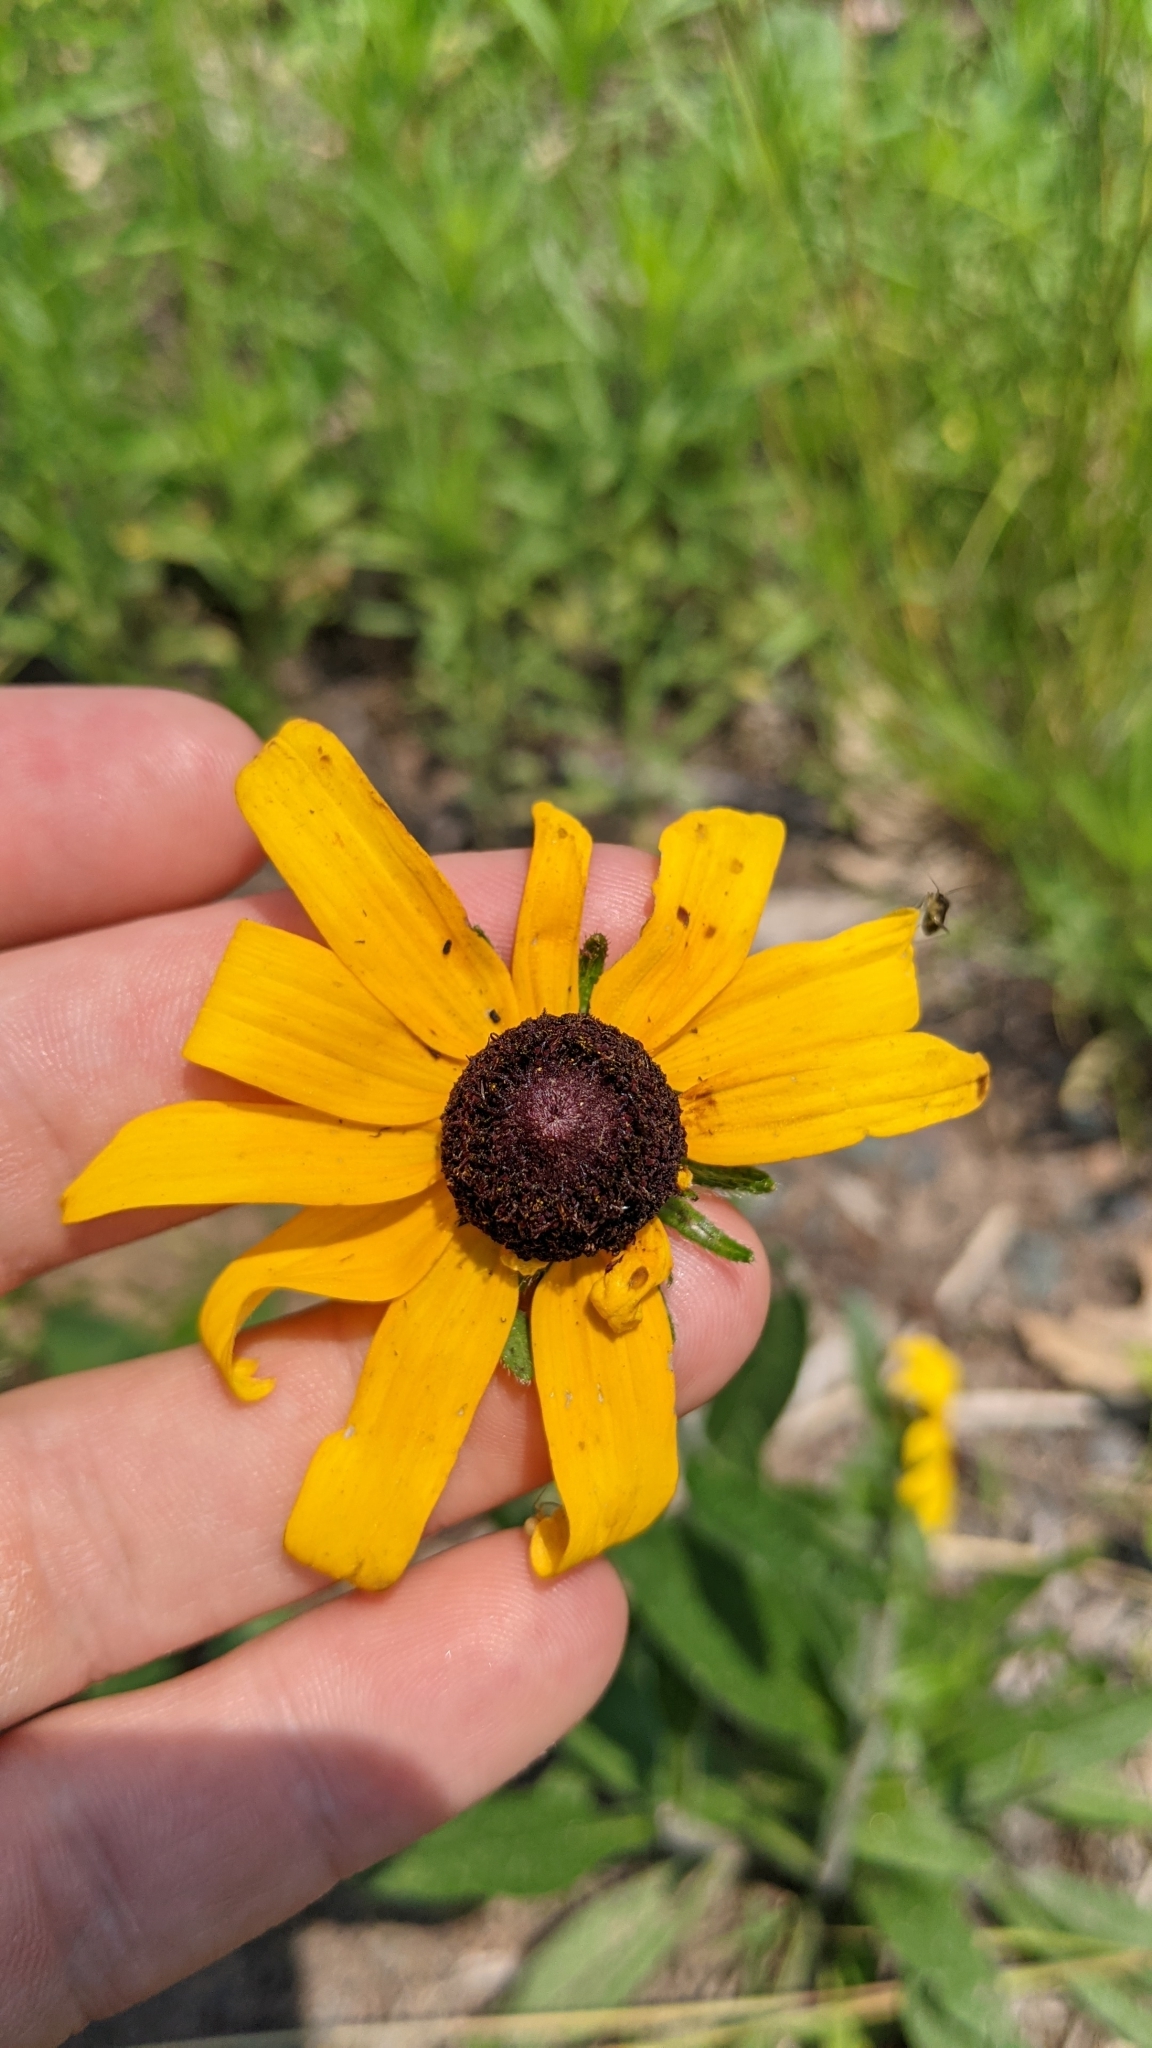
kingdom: Plantae
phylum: Tracheophyta
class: Magnoliopsida
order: Asterales
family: Asteraceae
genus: Rudbeckia
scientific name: Rudbeckia hirta
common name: Black-eyed-susan
